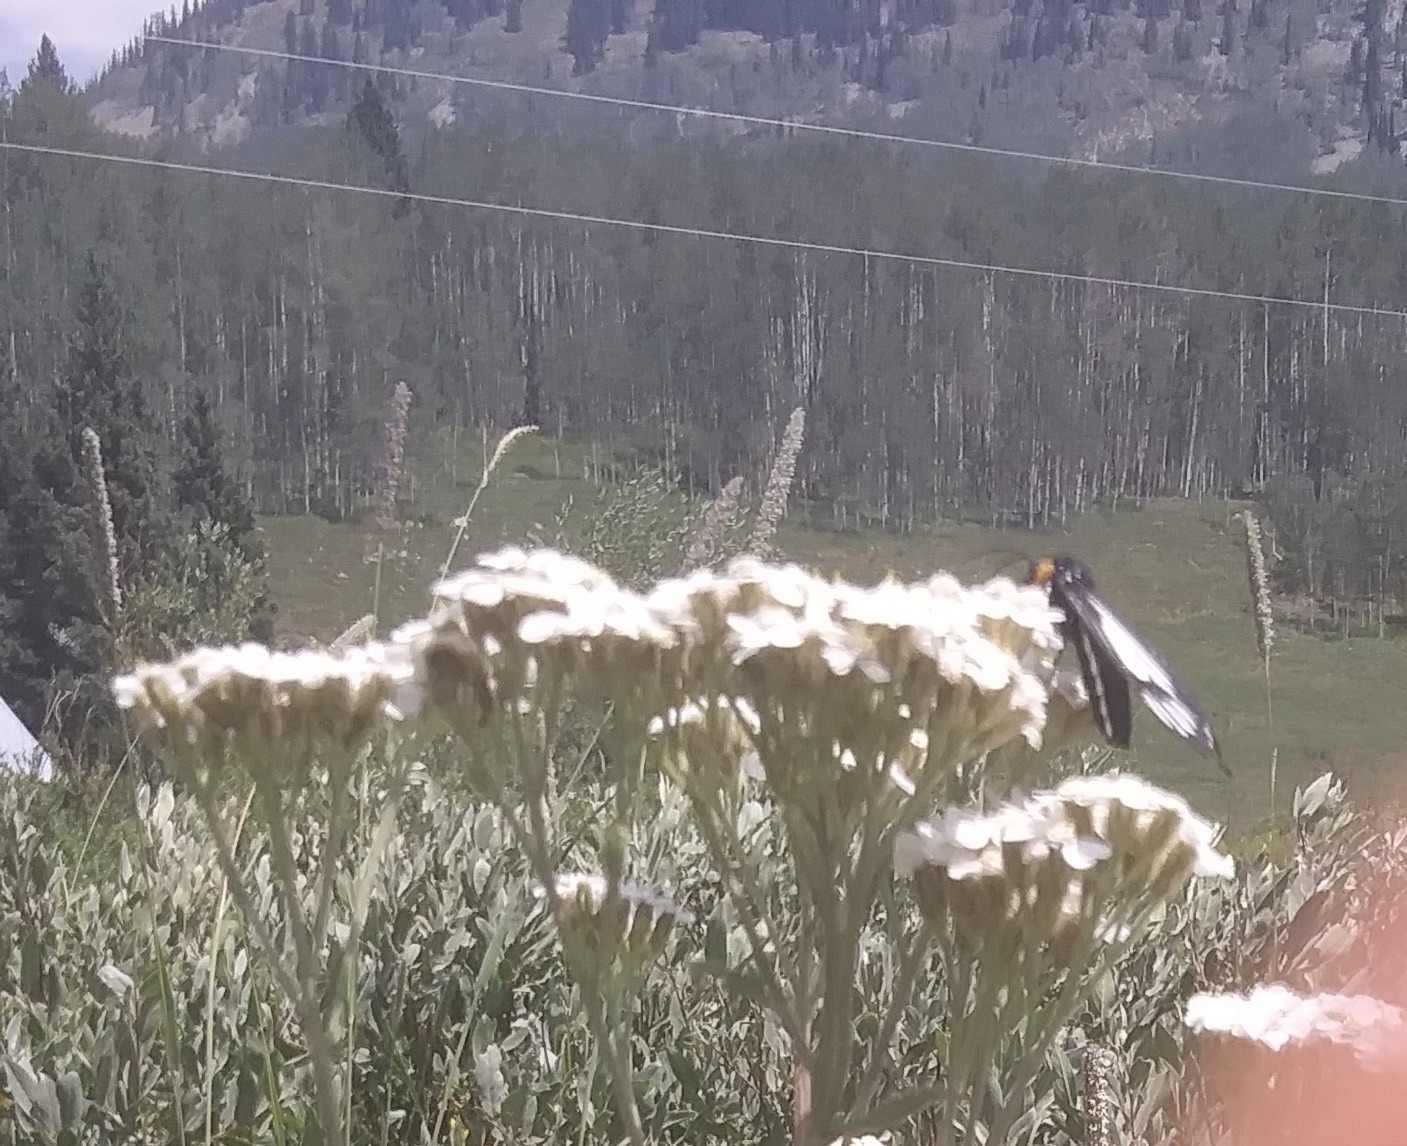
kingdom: Animalia
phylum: Arthropoda
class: Insecta
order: Lepidoptera
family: Erebidae
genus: Gnophaela
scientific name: Gnophaela vermiculata
